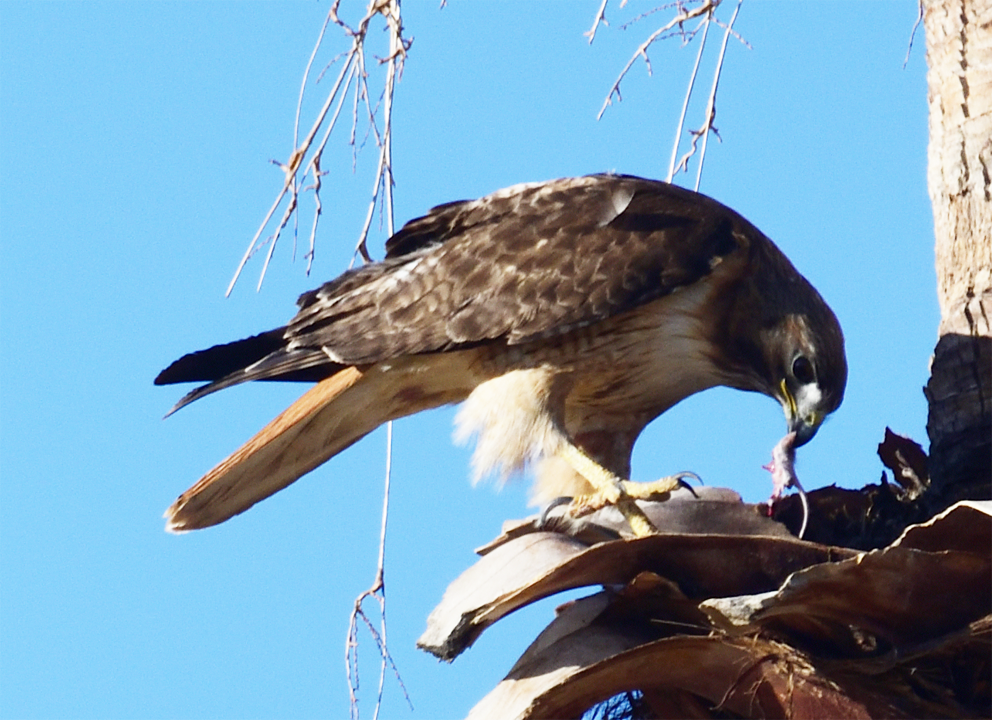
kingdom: Animalia
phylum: Chordata
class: Aves
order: Accipitriformes
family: Accipitridae
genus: Buteo
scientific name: Buteo jamaicensis
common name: Red-tailed hawk
